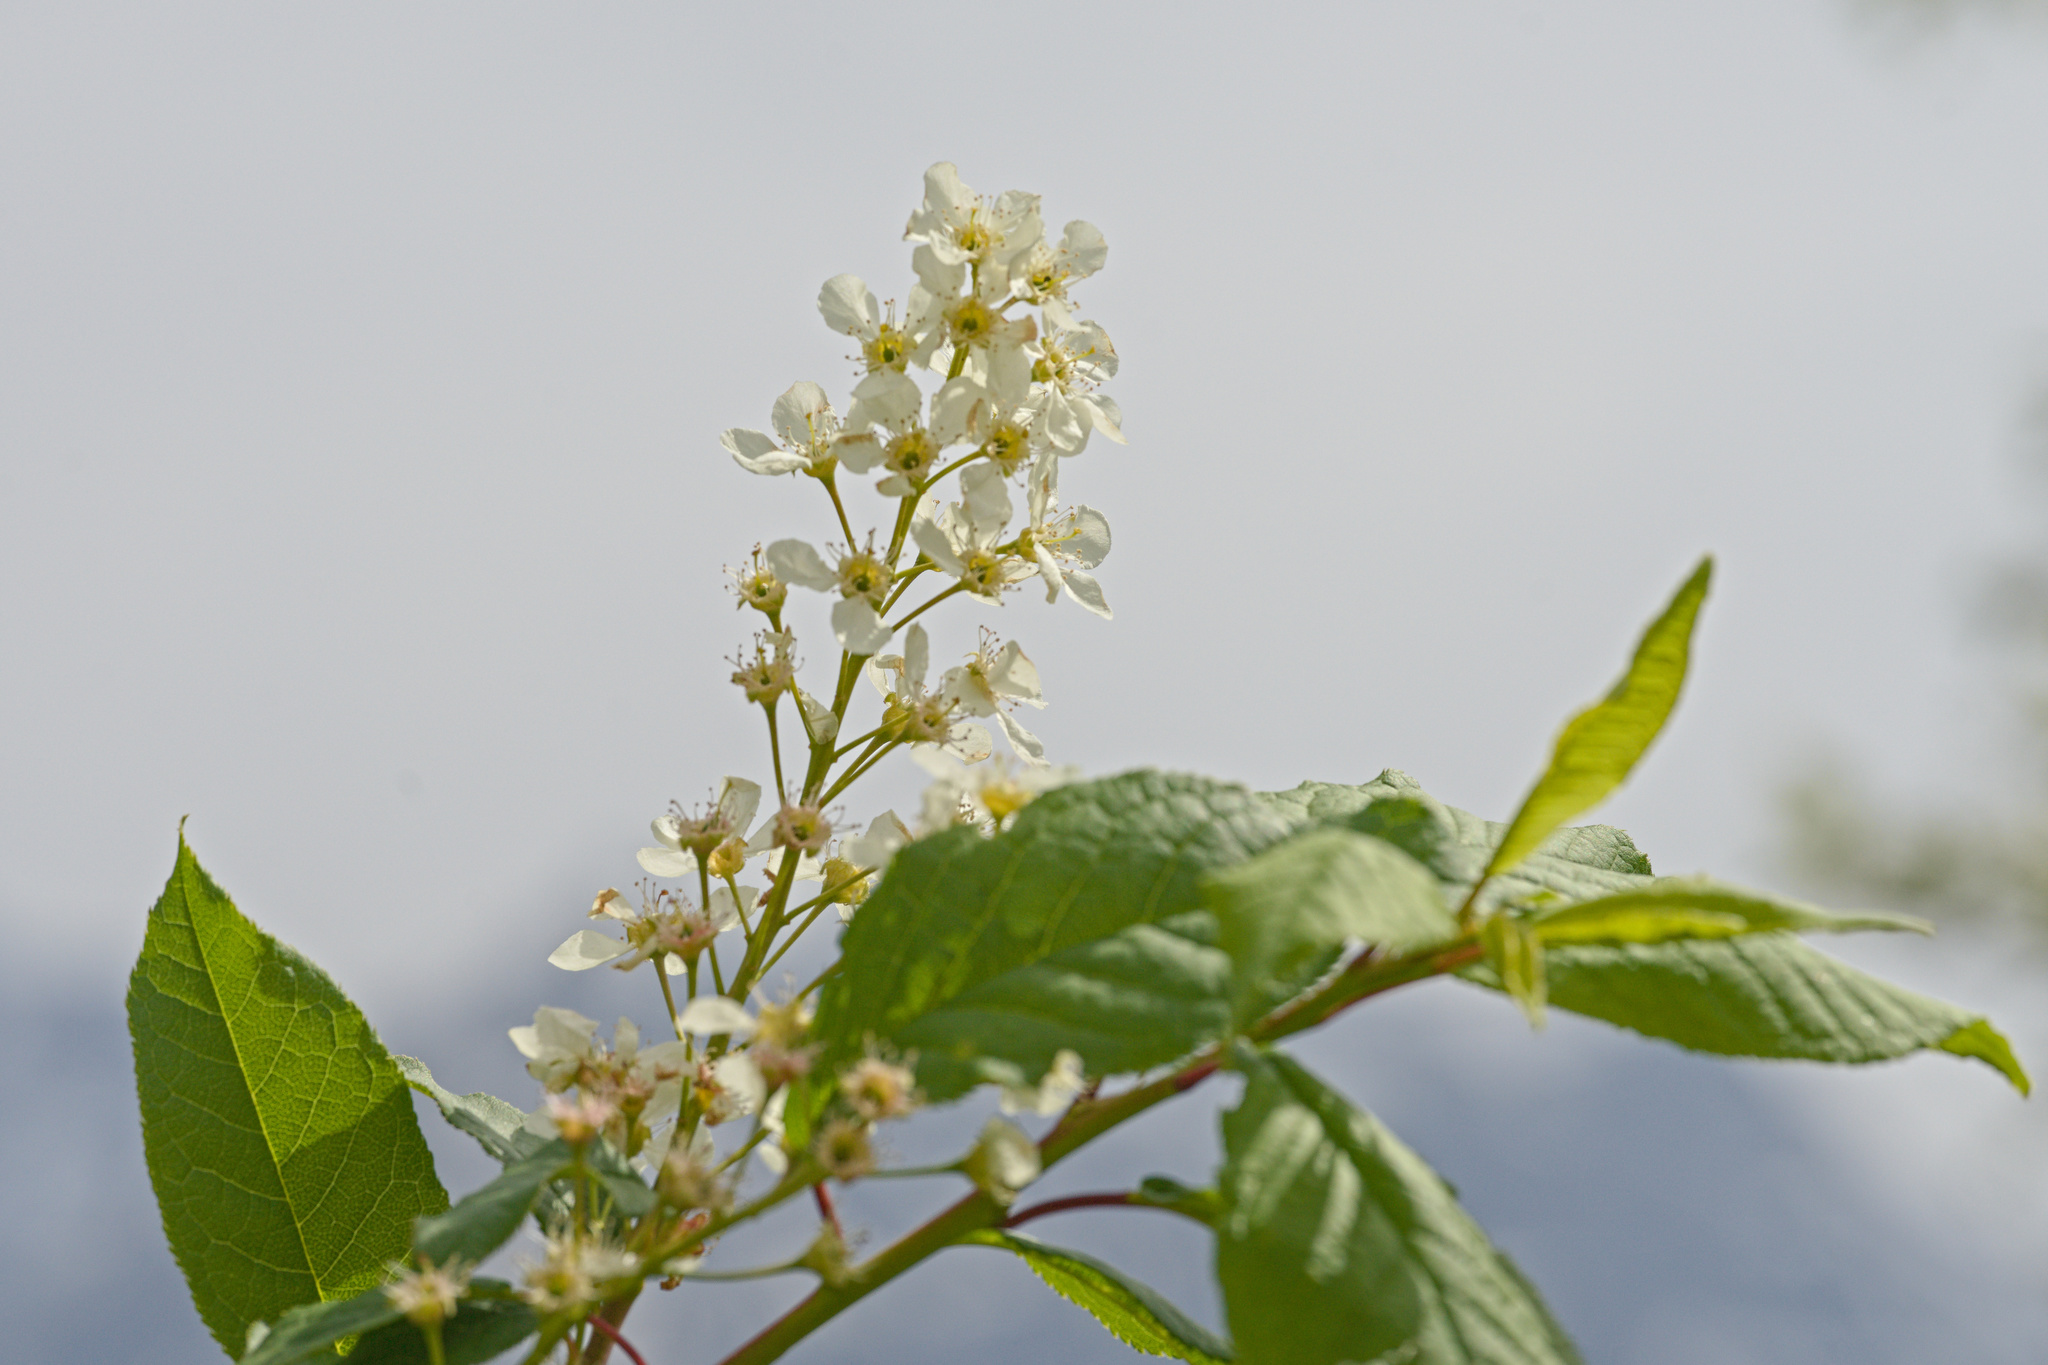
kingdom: Plantae
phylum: Tracheophyta
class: Magnoliopsida
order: Rosales
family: Rosaceae
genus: Prunus
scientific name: Prunus padus
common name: Bird cherry
